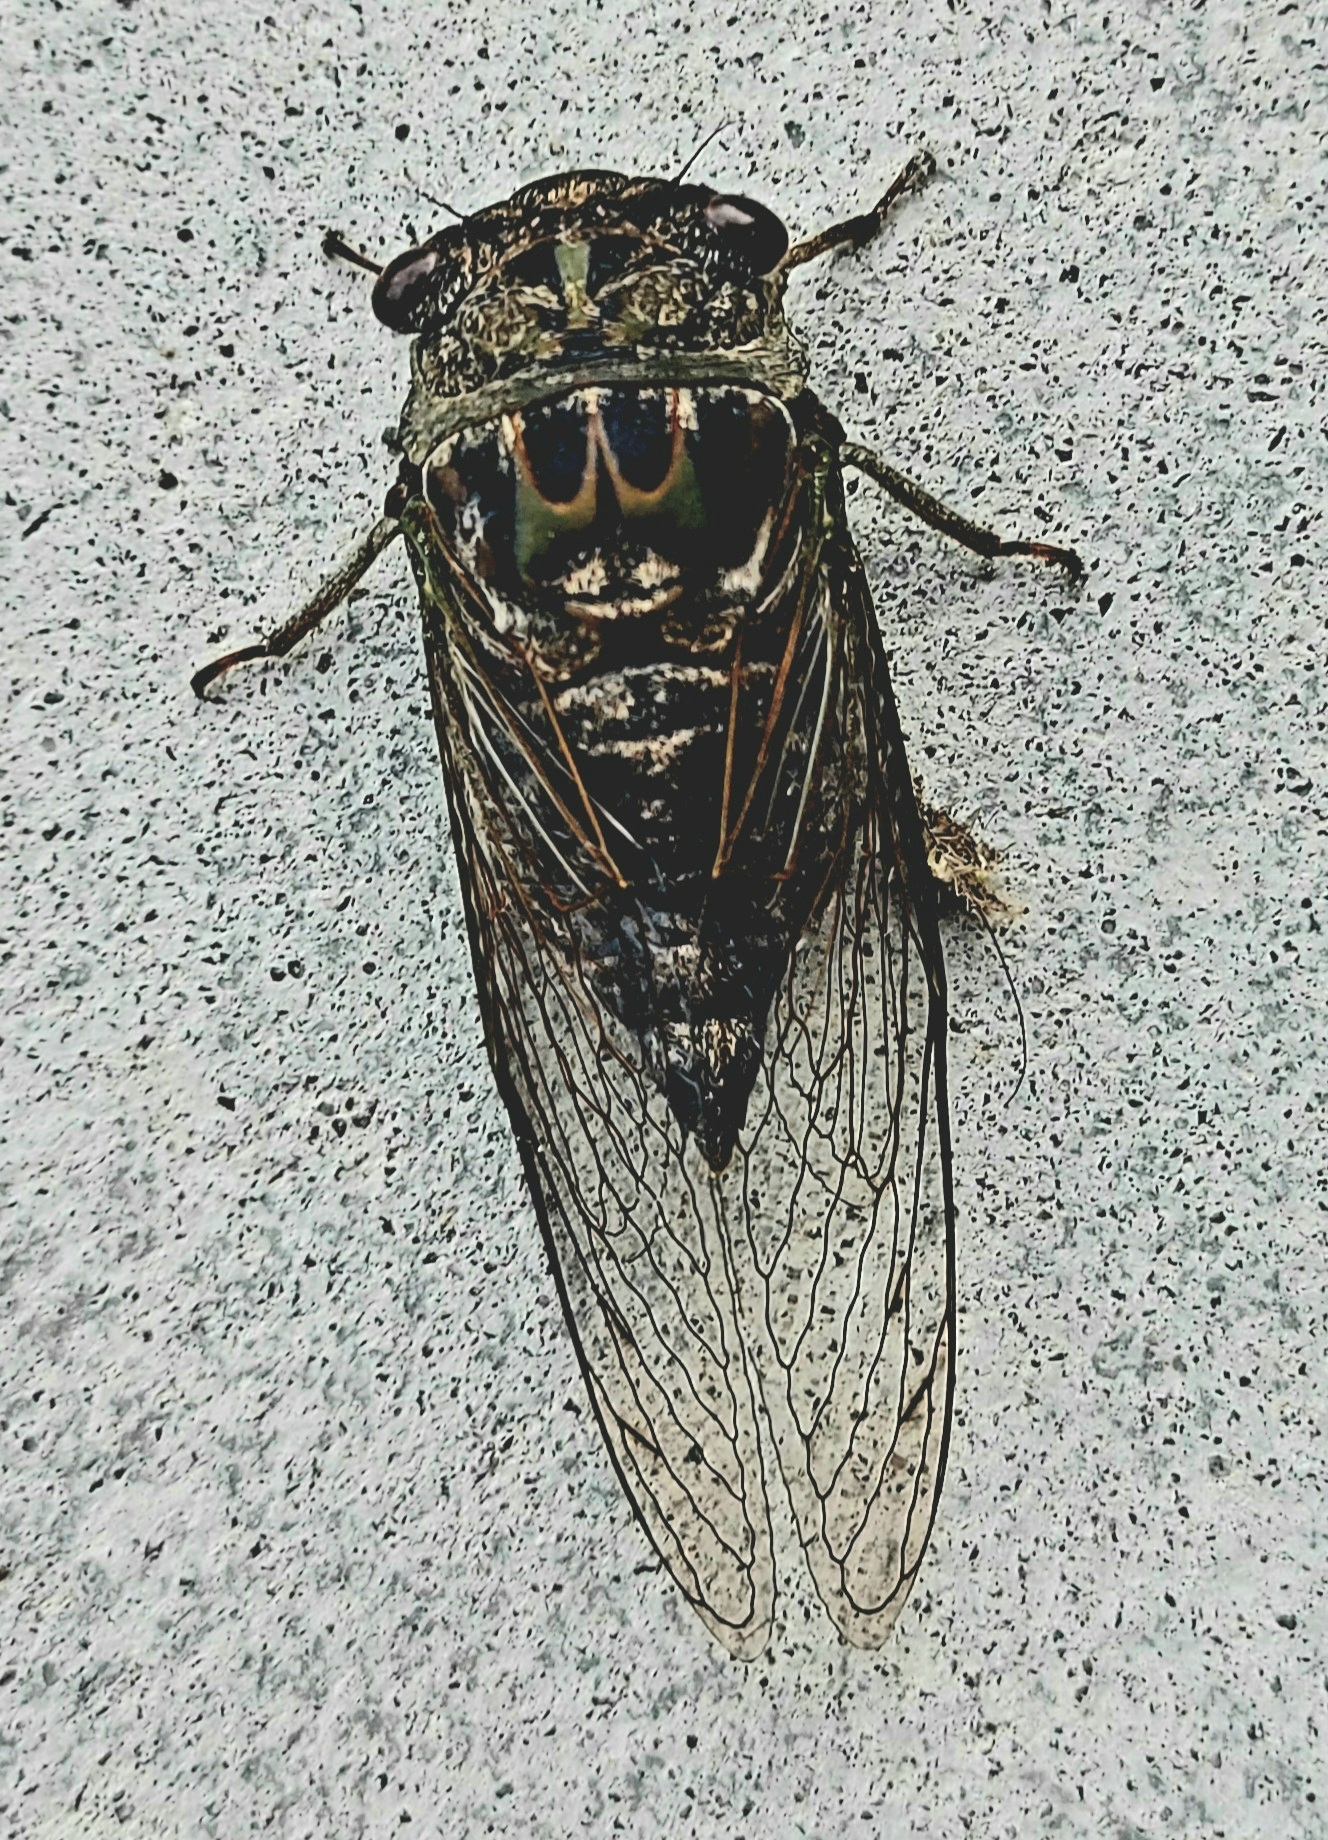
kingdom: Animalia
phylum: Arthropoda
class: Insecta
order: Hemiptera
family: Cicadidae
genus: Neotibicen
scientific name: Neotibicen canicularis
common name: God-day cicada
